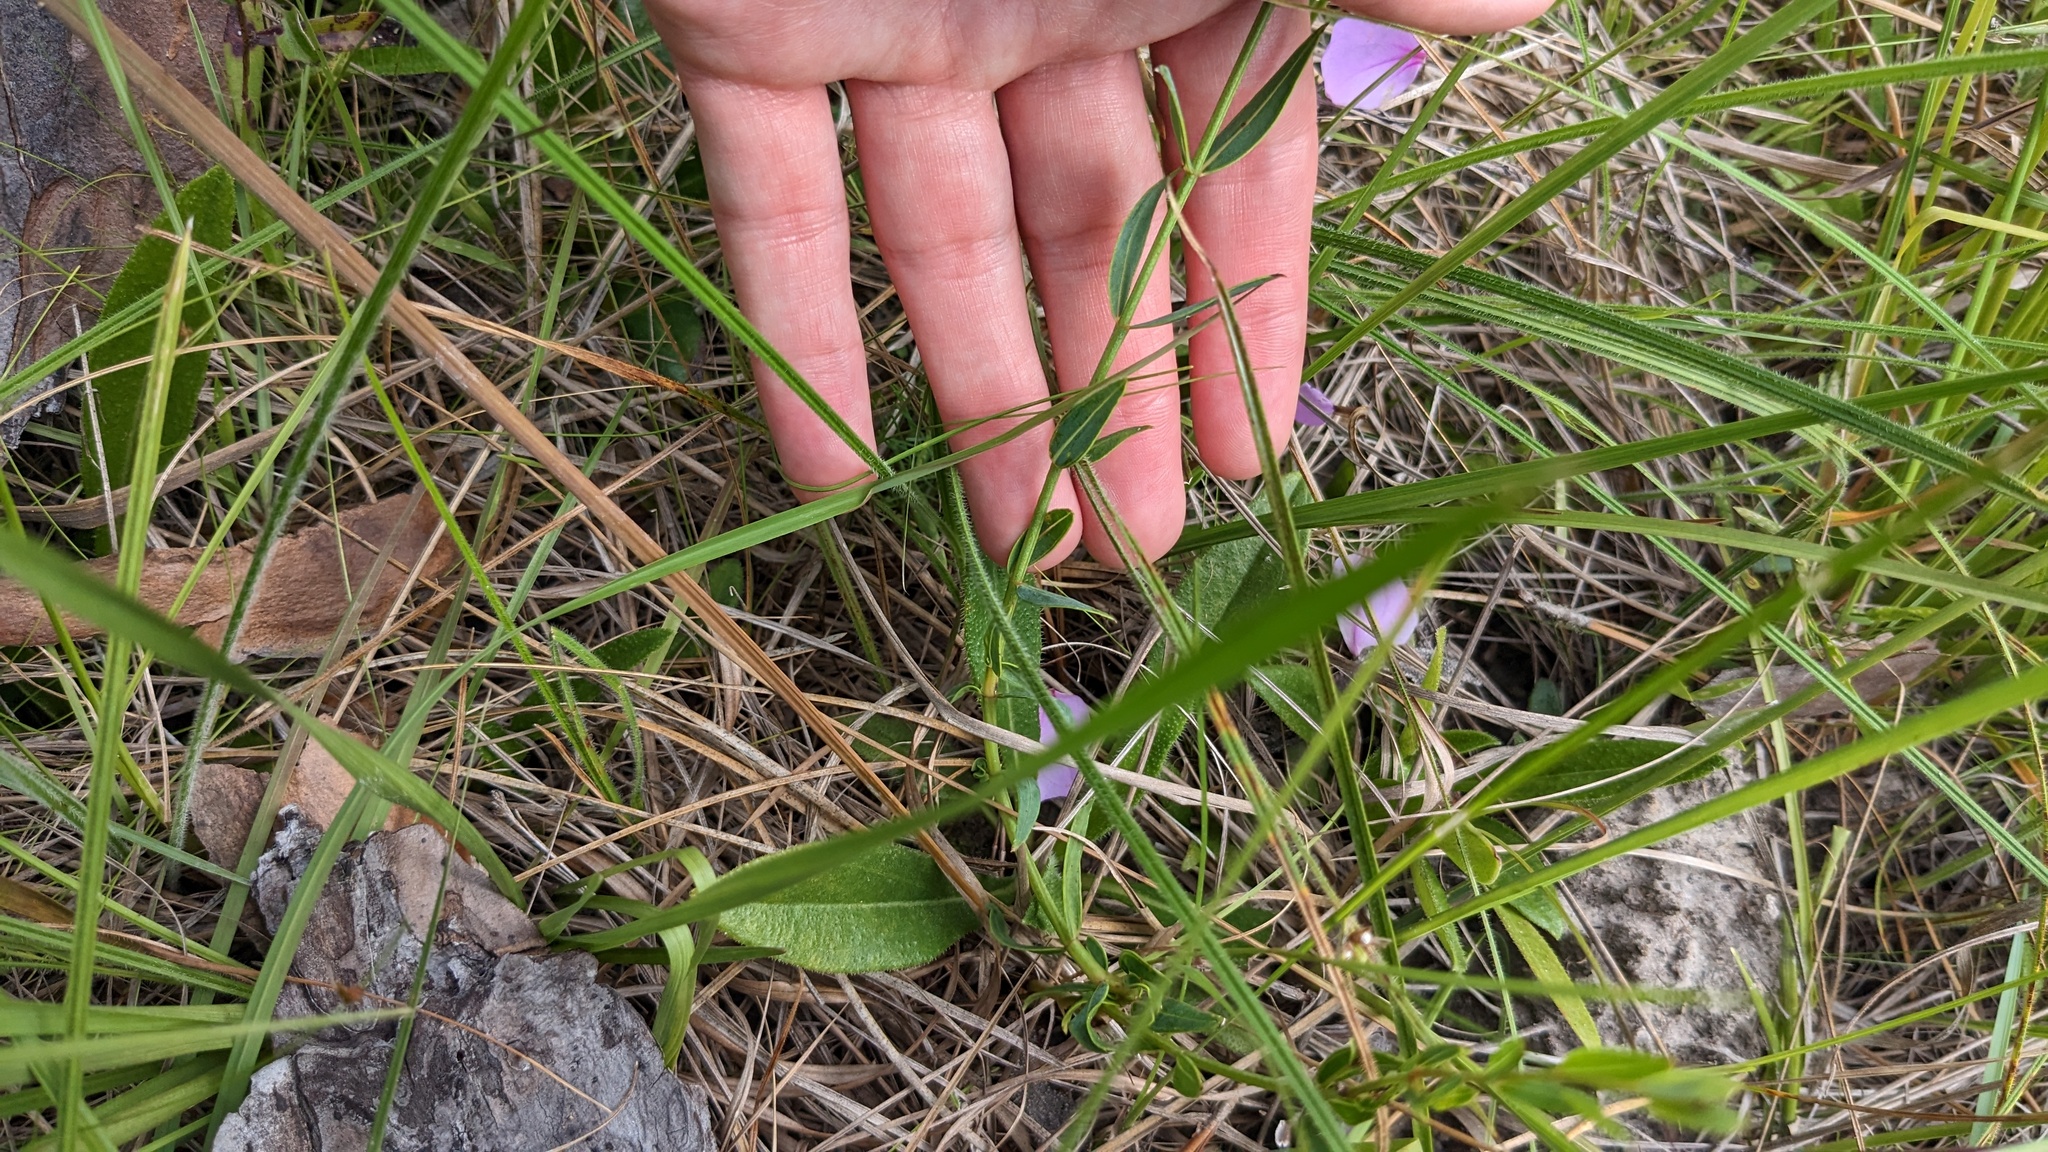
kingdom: Plantae
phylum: Tracheophyta
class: Magnoliopsida
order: Myrtales
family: Melastomataceae
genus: Rhexia
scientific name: Rhexia alifanus
